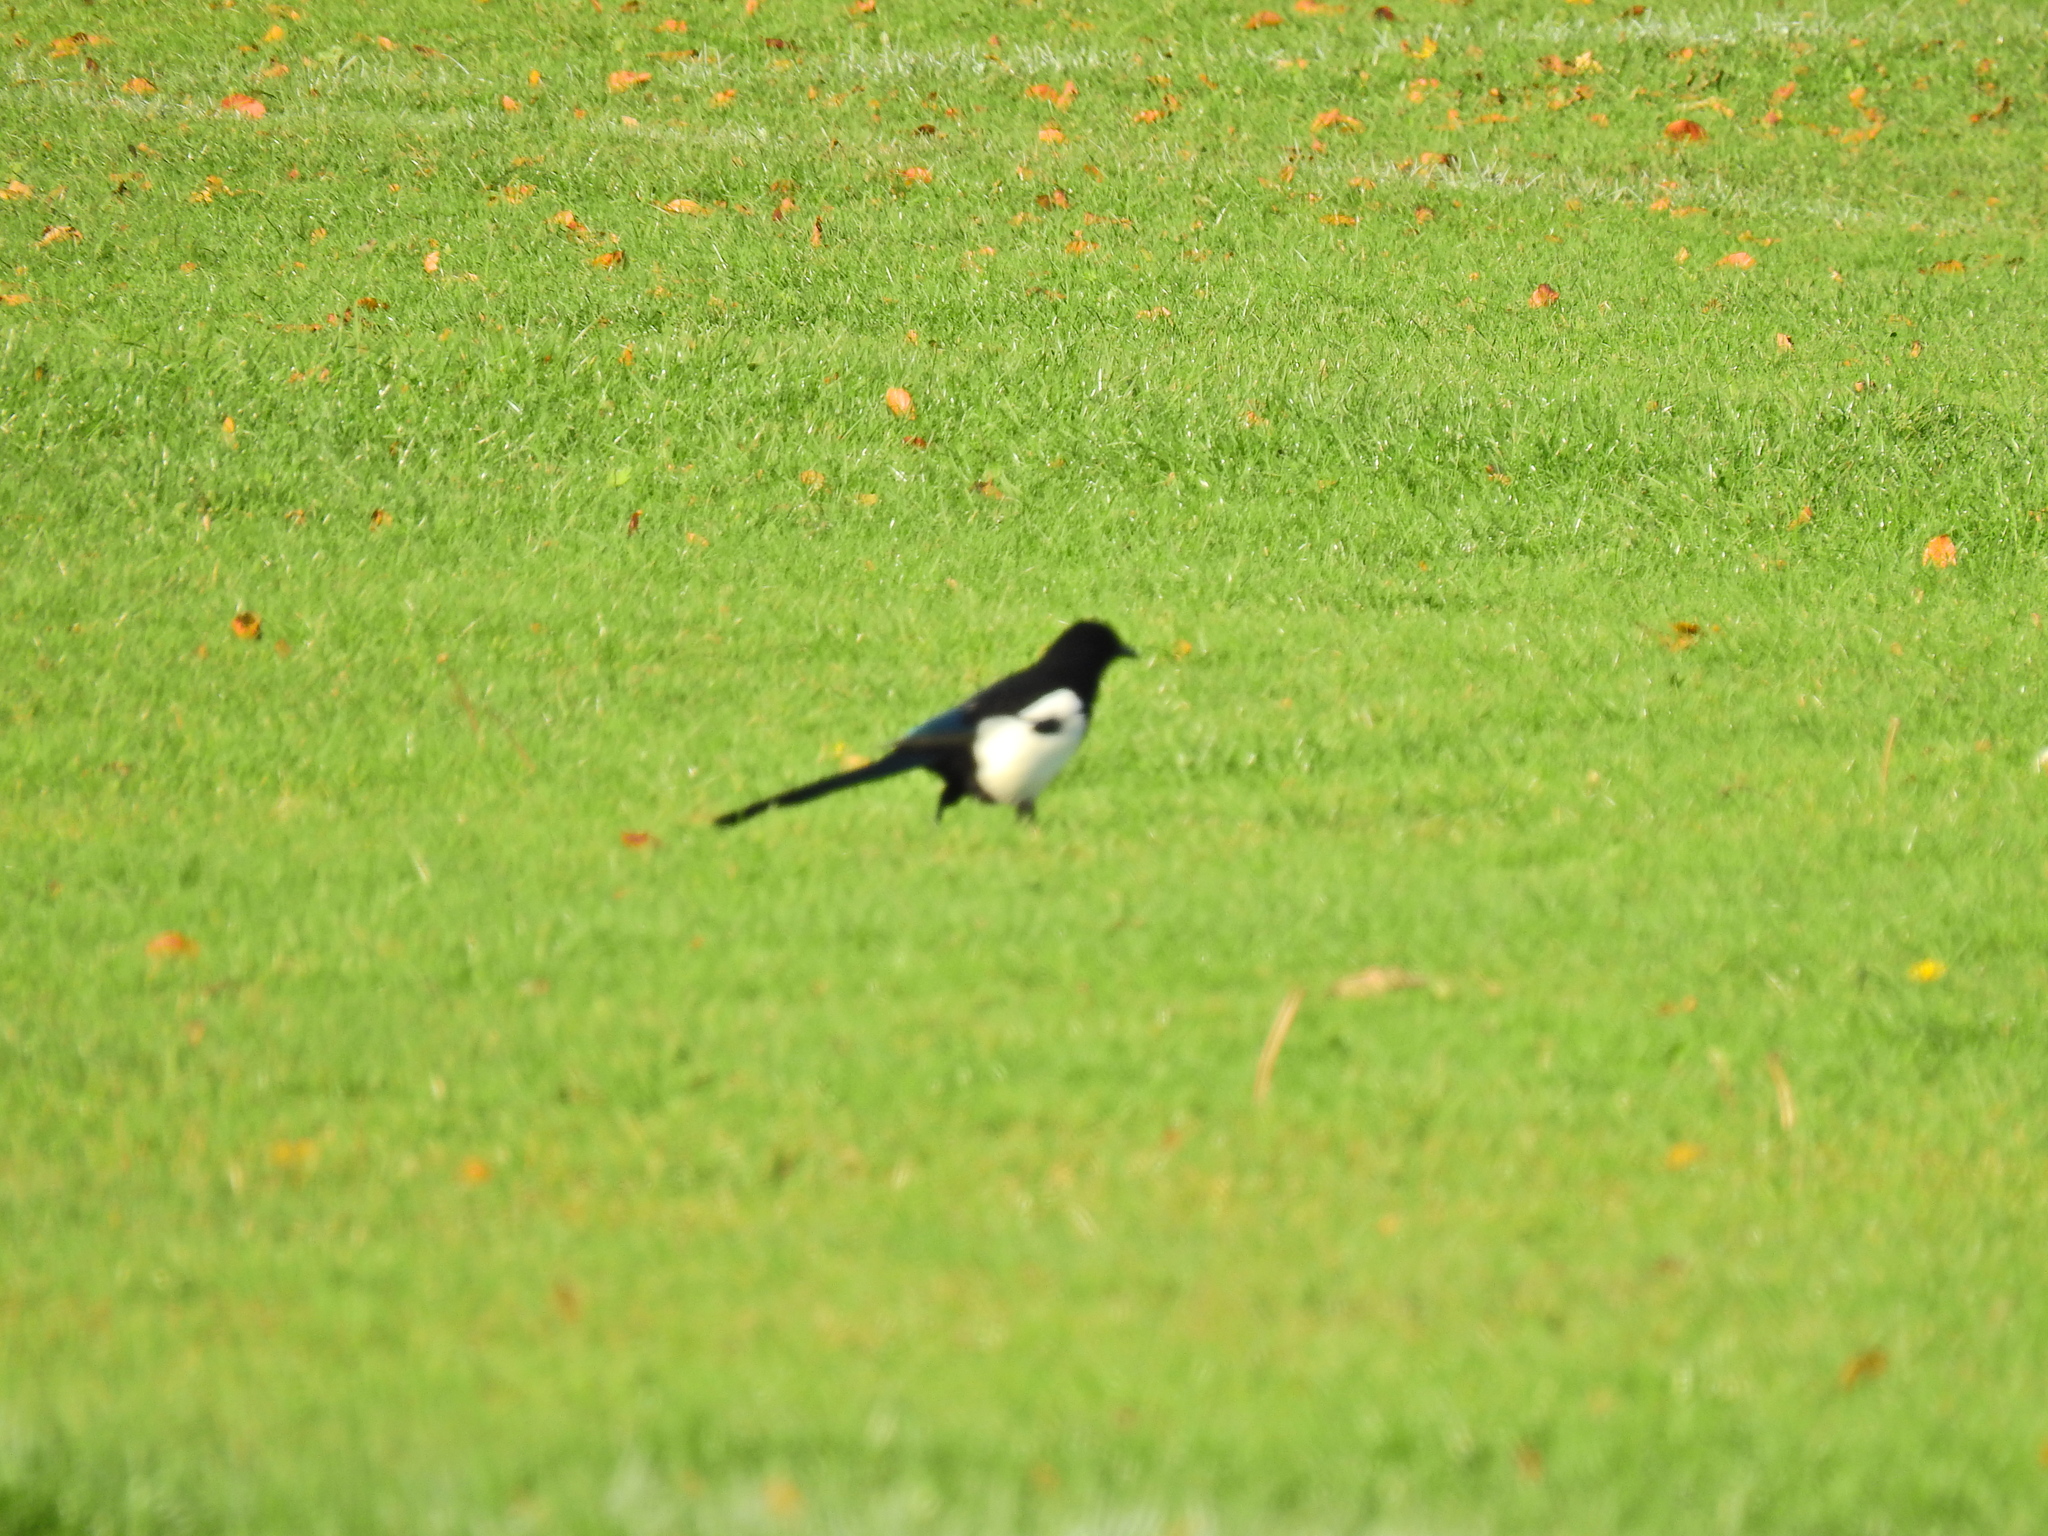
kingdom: Animalia
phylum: Chordata
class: Aves
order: Passeriformes
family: Corvidae
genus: Pica
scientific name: Pica pica
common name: Eurasian magpie
